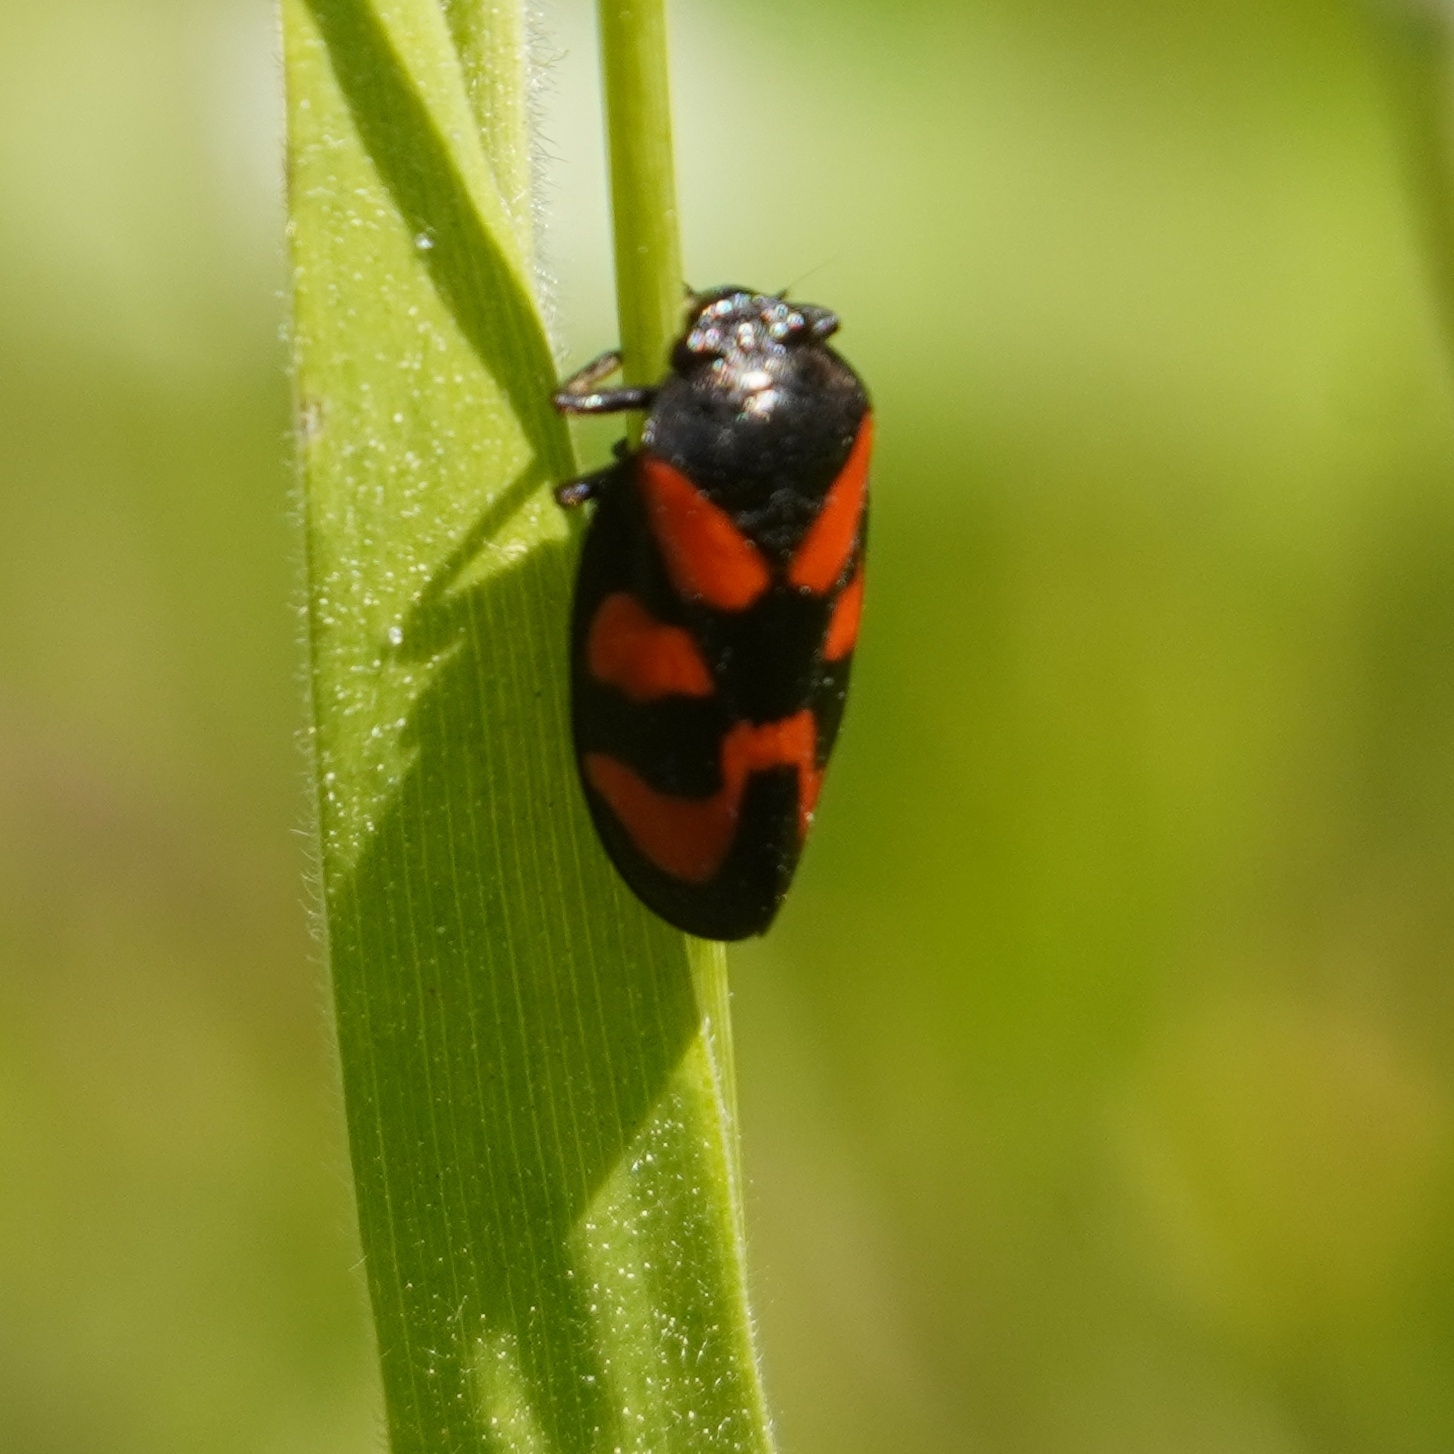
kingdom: Animalia
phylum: Arthropoda
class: Insecta
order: Hemiptera
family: Cercopidae
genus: Cercopis
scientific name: Cercopis vulnerata
